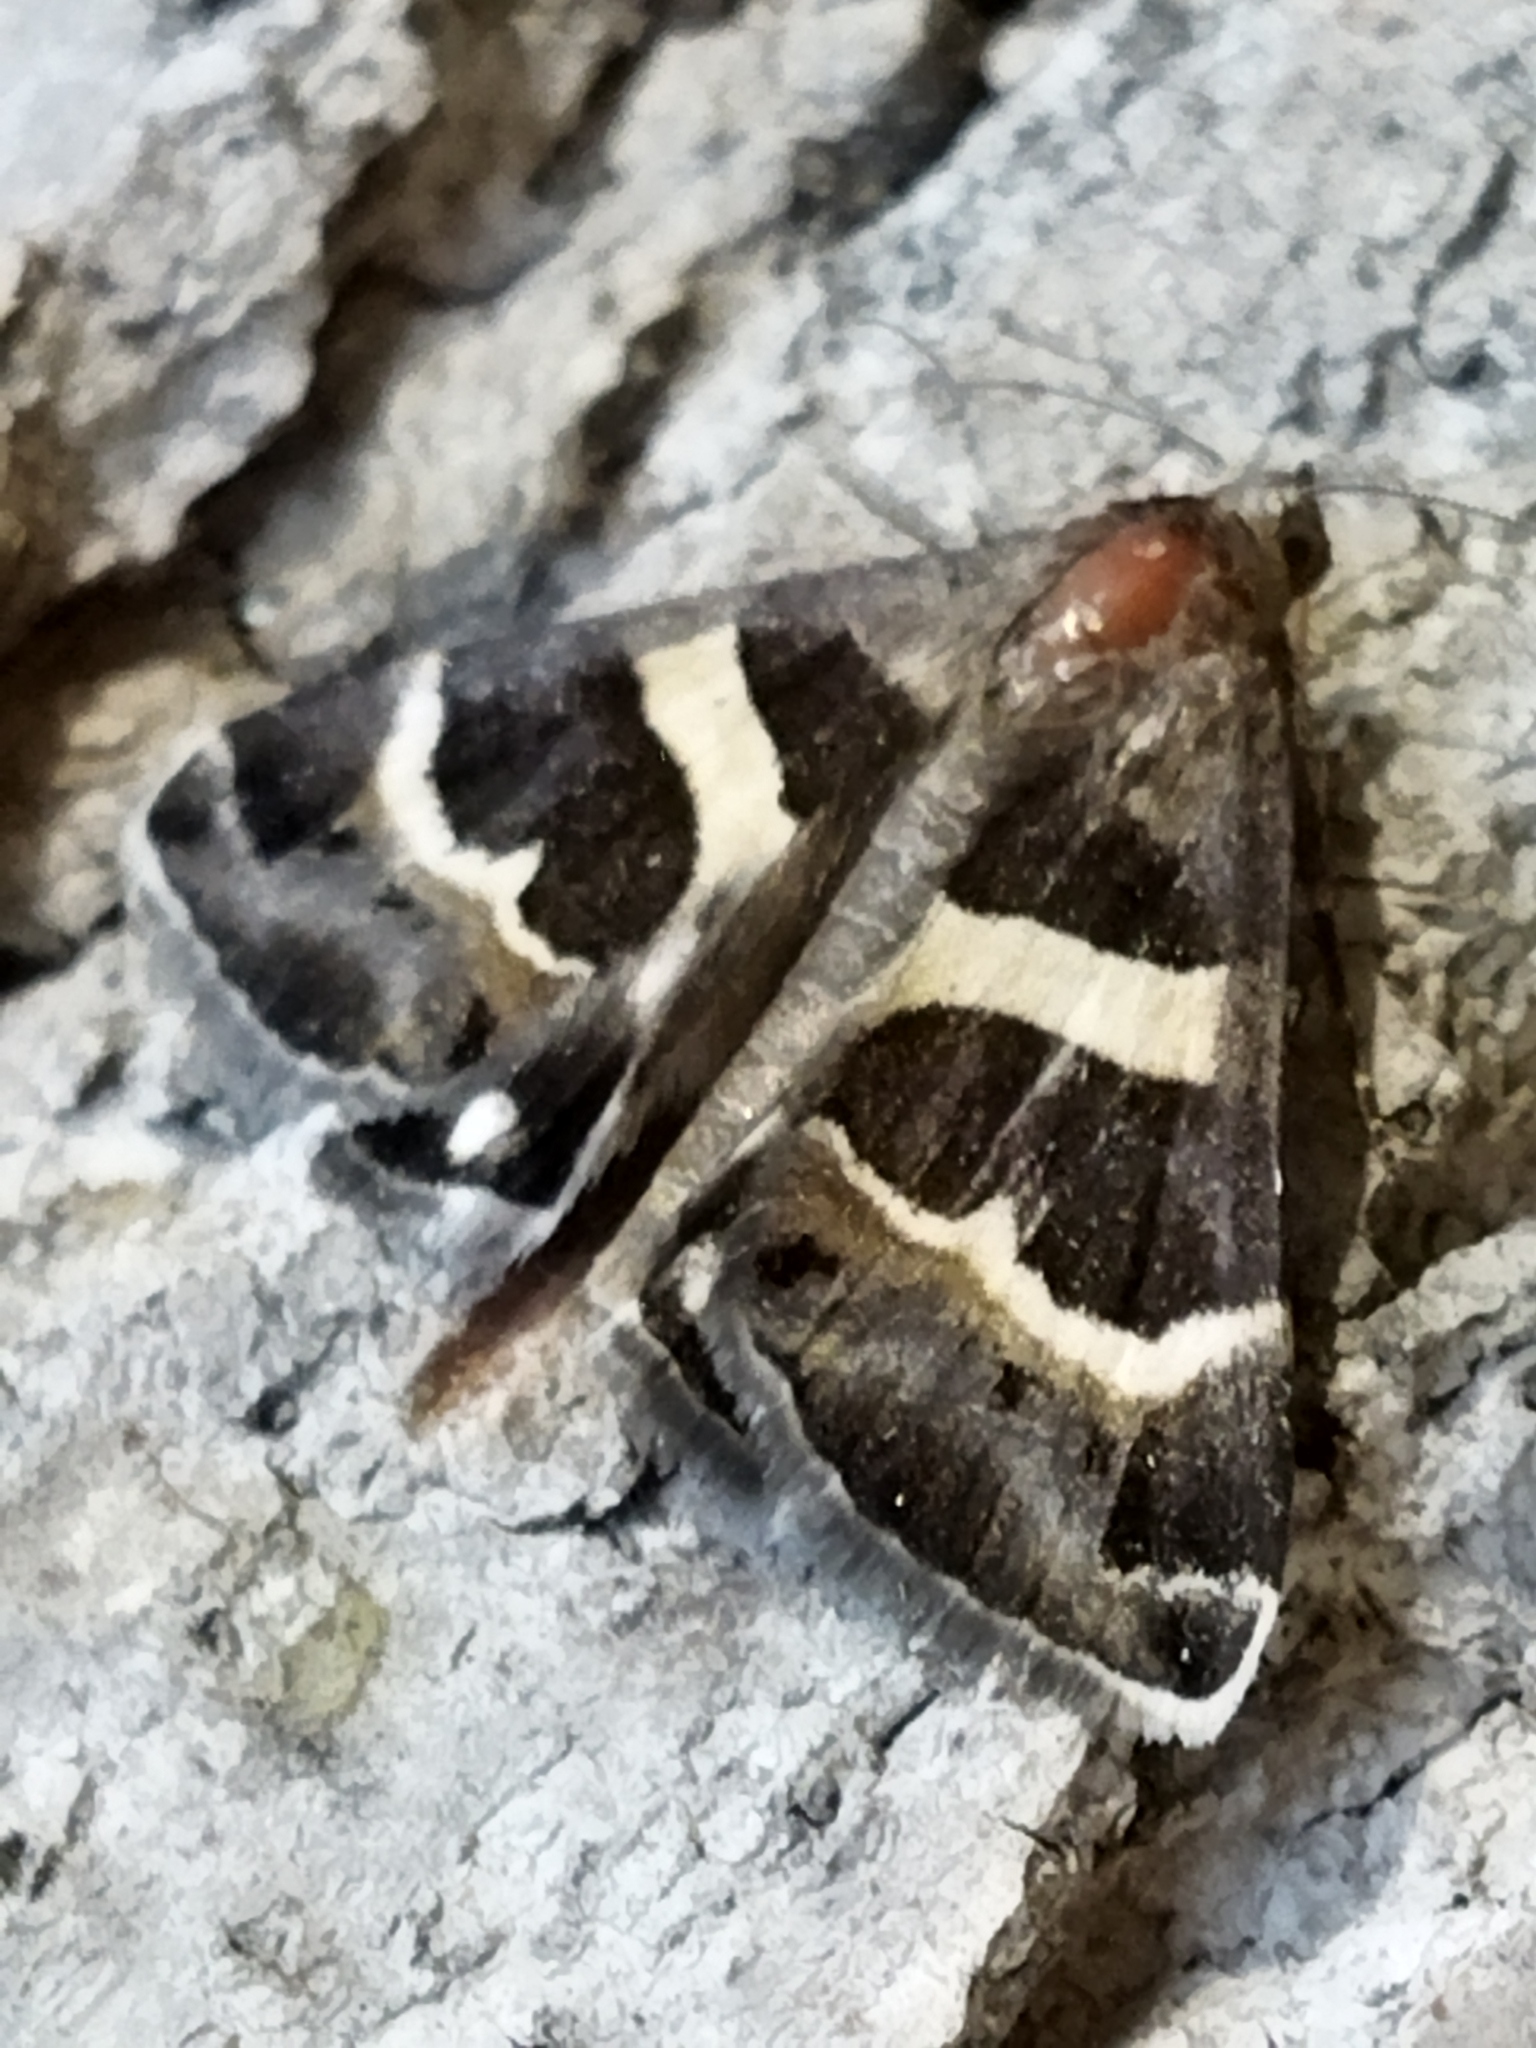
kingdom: Animalia
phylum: Arthropoda
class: Insecta
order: Lepidoptera
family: Erebidae
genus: Grammodes
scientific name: Grammodes stolida
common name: Geometrician
